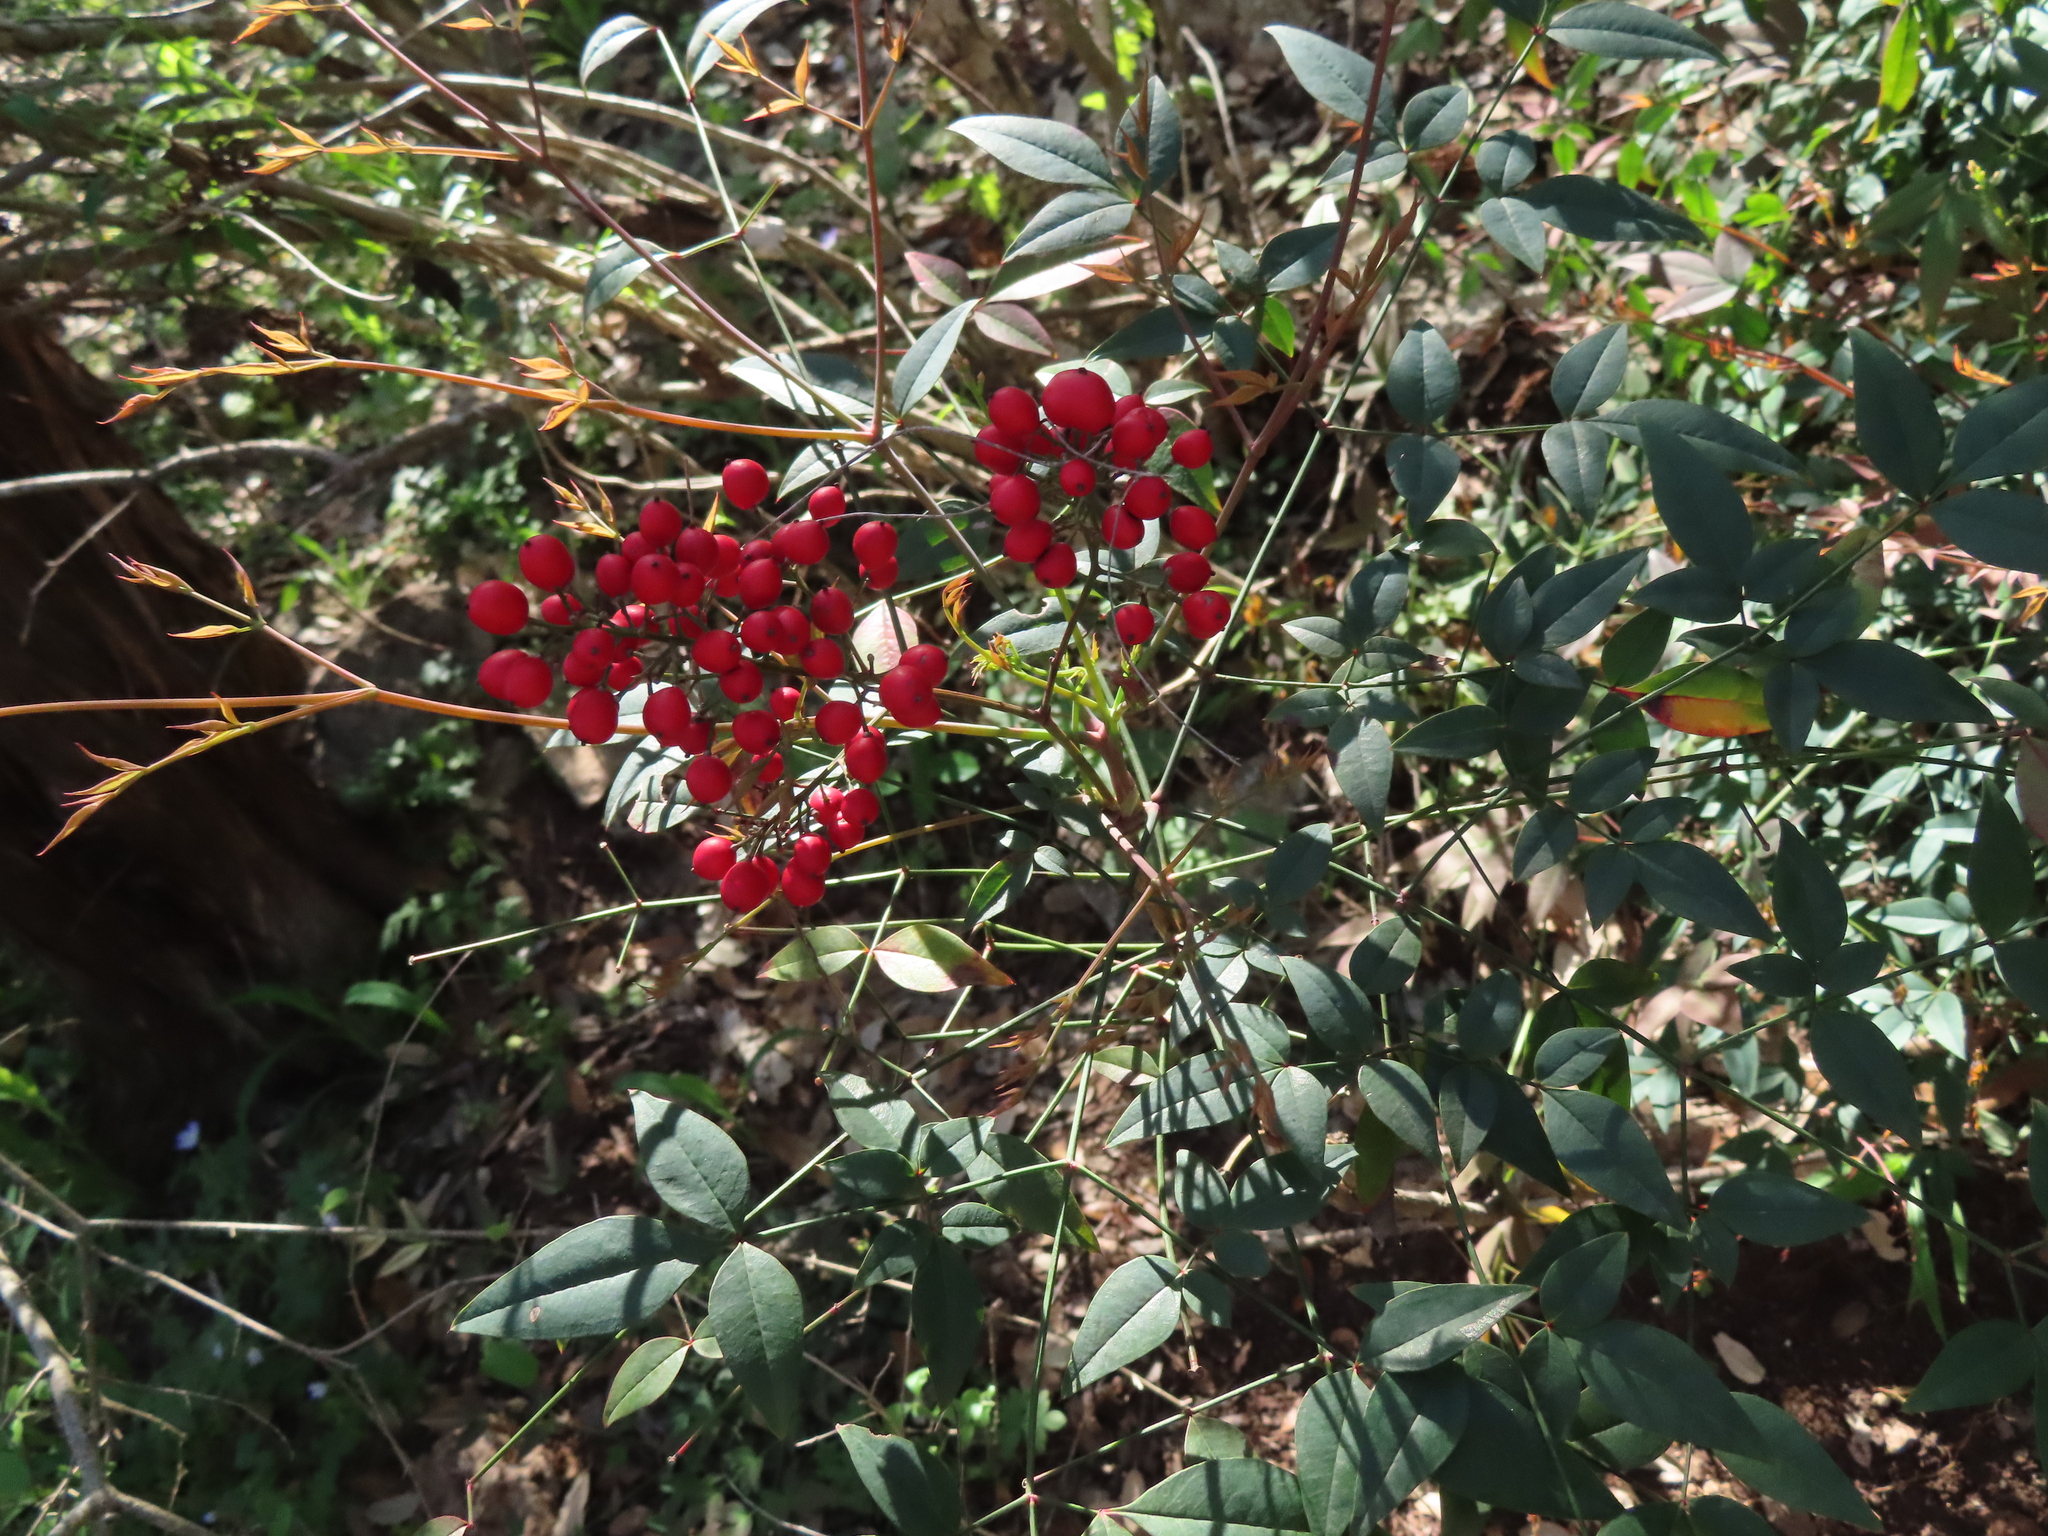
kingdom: Plantae
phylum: Tracheophyta
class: Magnoliopsida
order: Ranunculales
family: Berberidaceae
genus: Nandina
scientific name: Nandina domestica
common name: Sacred bamboo
